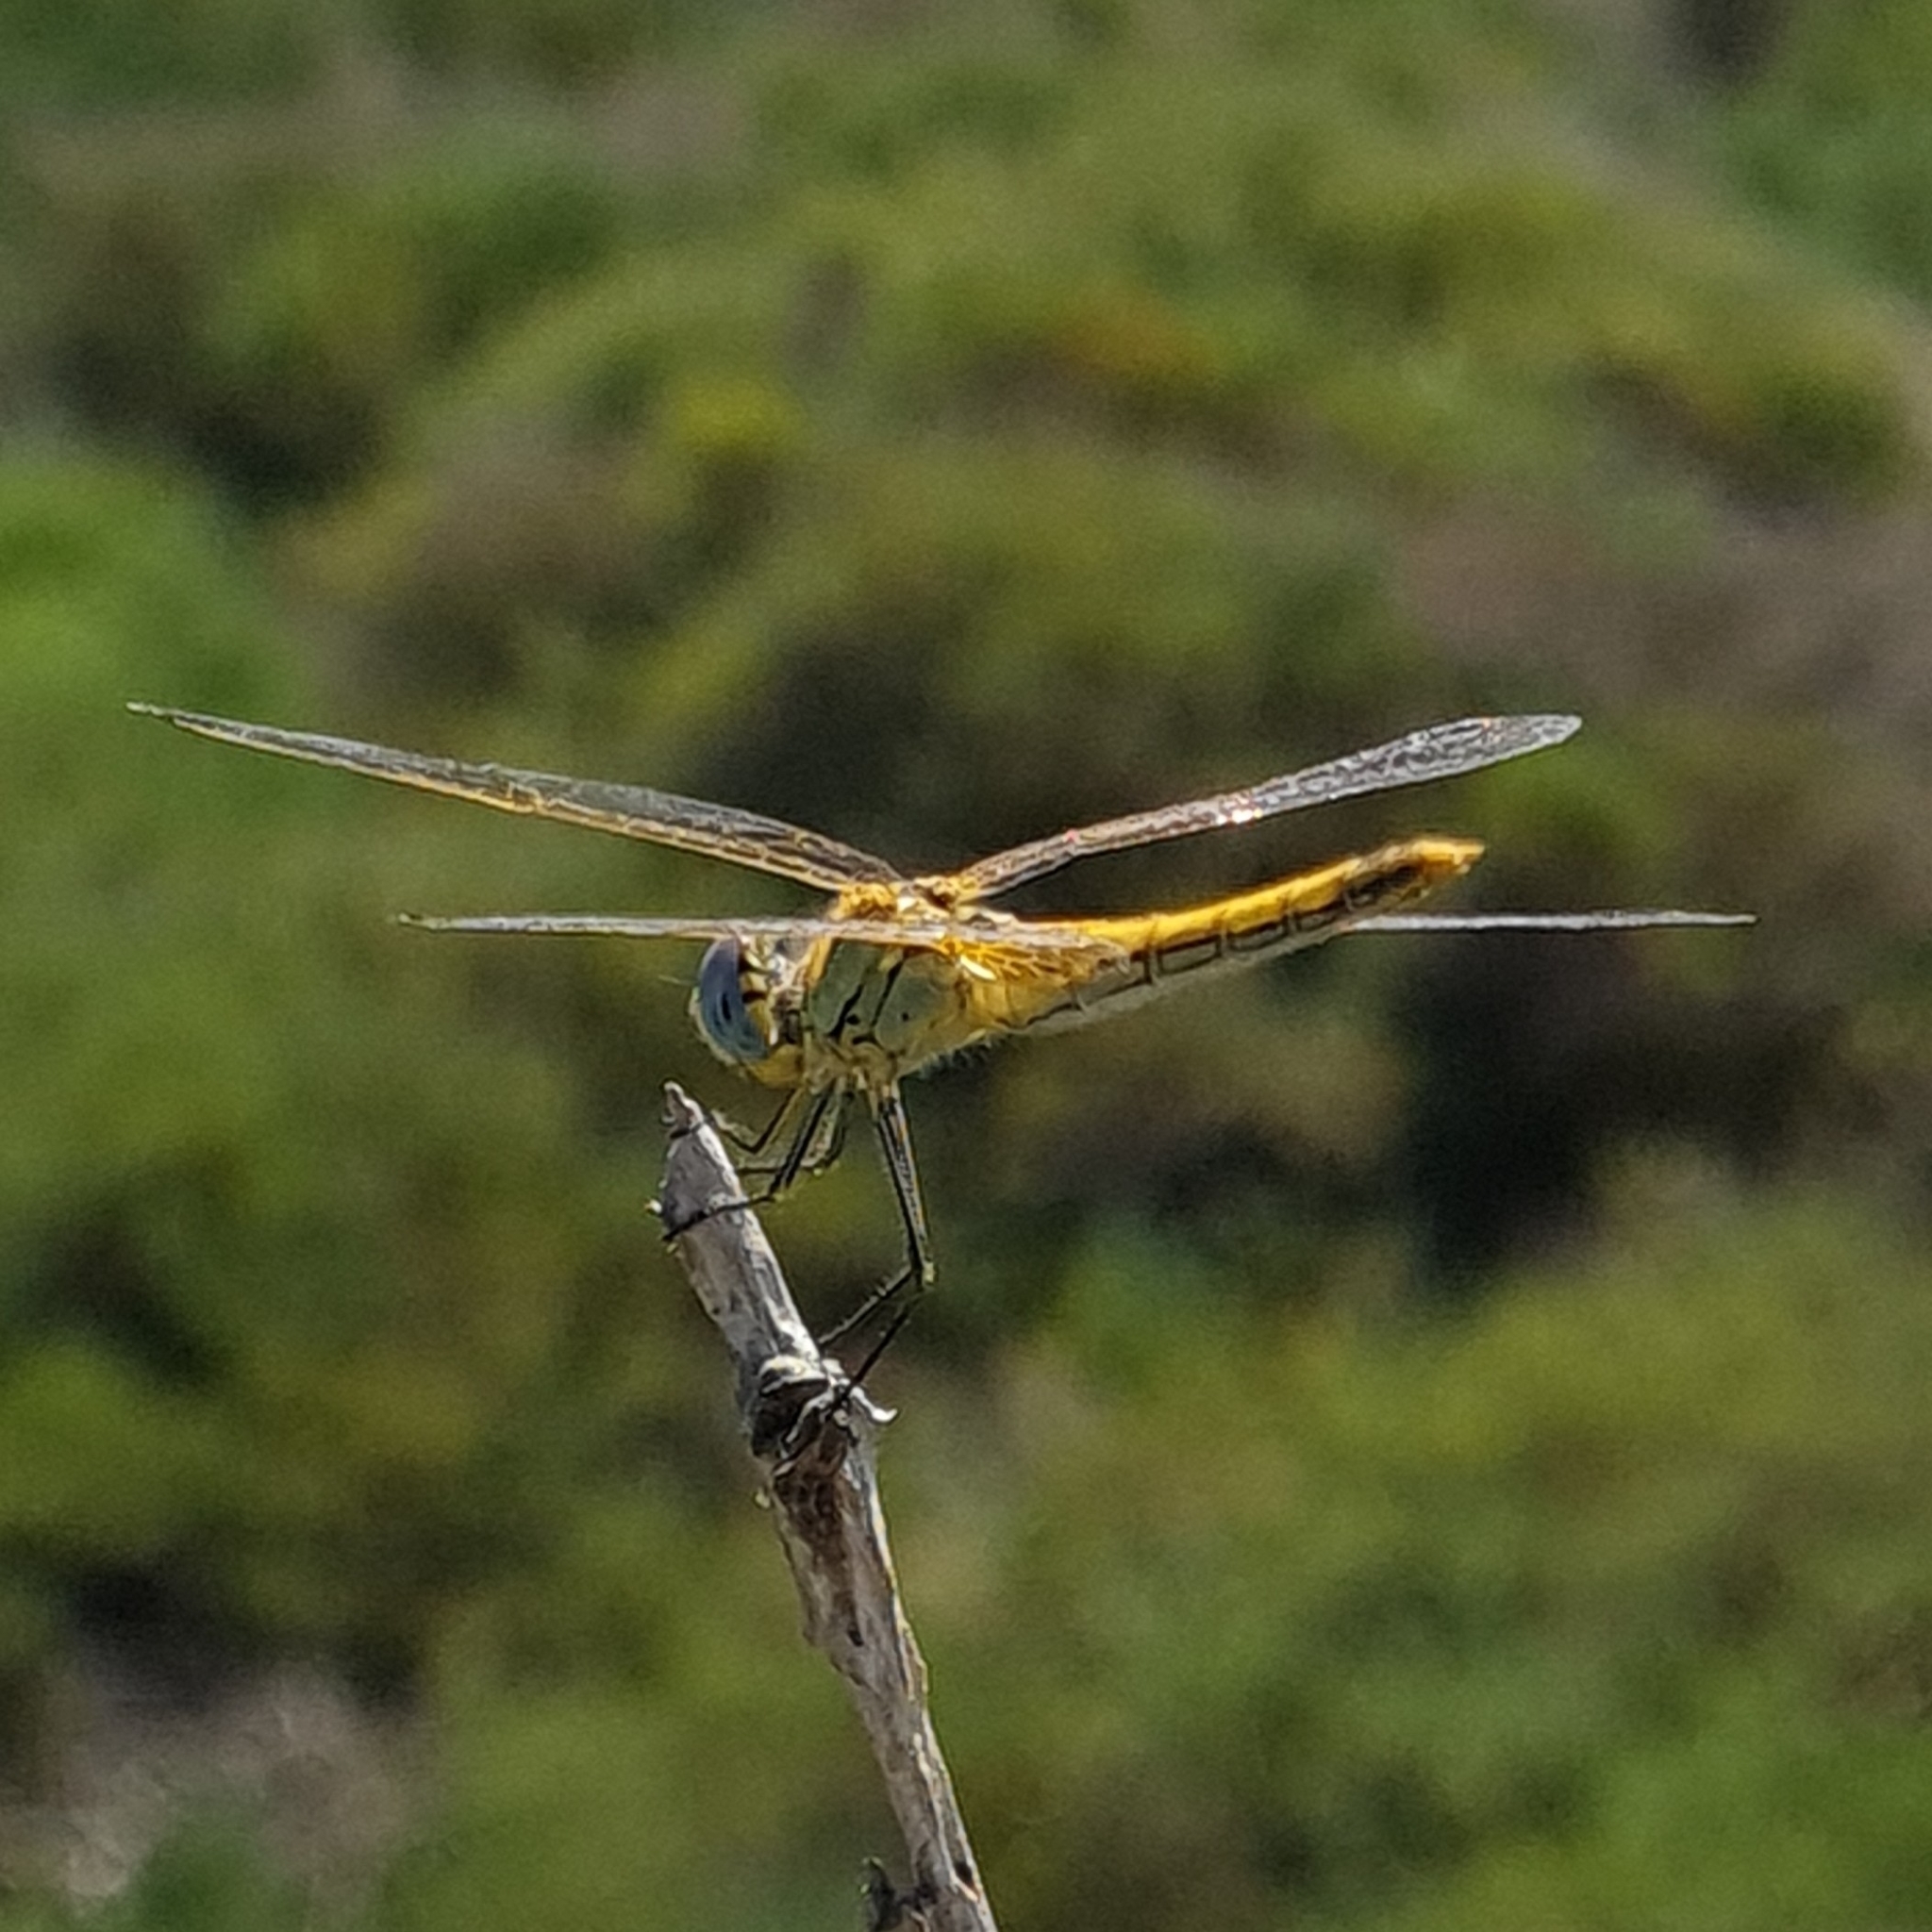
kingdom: Animalia
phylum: Arthropoda
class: Insecta
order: Odonata
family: Libellulidae
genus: Sympetrum
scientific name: Sympetrum fonscolombii
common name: Red-veined darter
